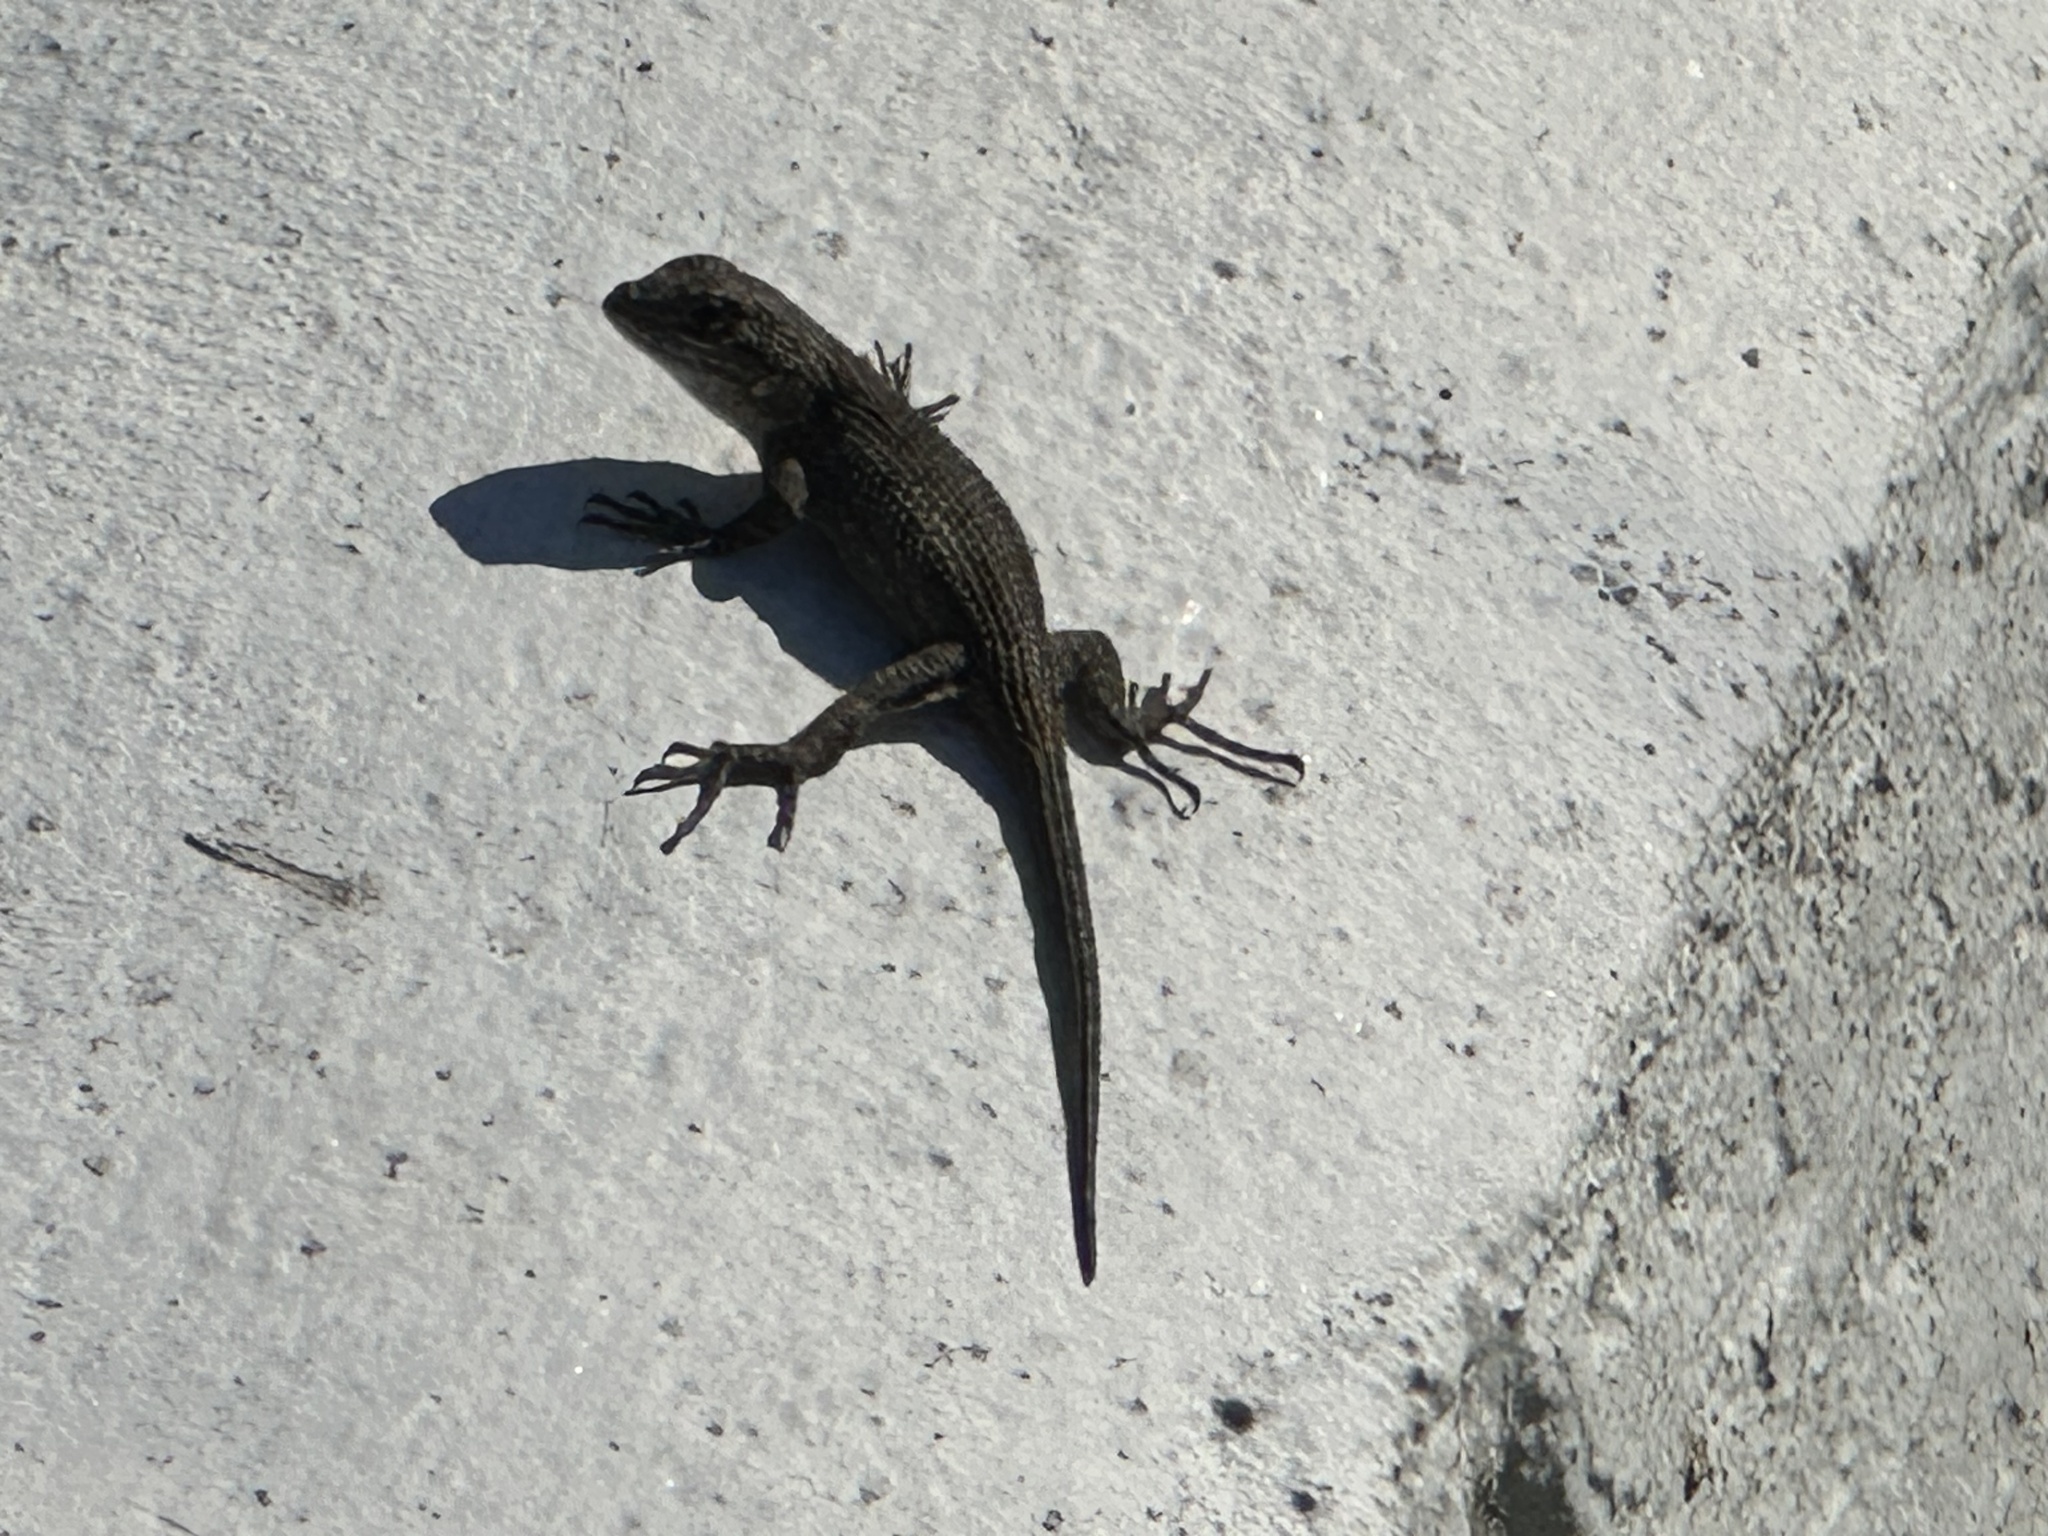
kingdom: Animalia
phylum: Chordata
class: Squamata
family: Phrynosomatidae
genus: Sceloporus
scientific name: Sceloporus occidentalis
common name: Western fence lizard
